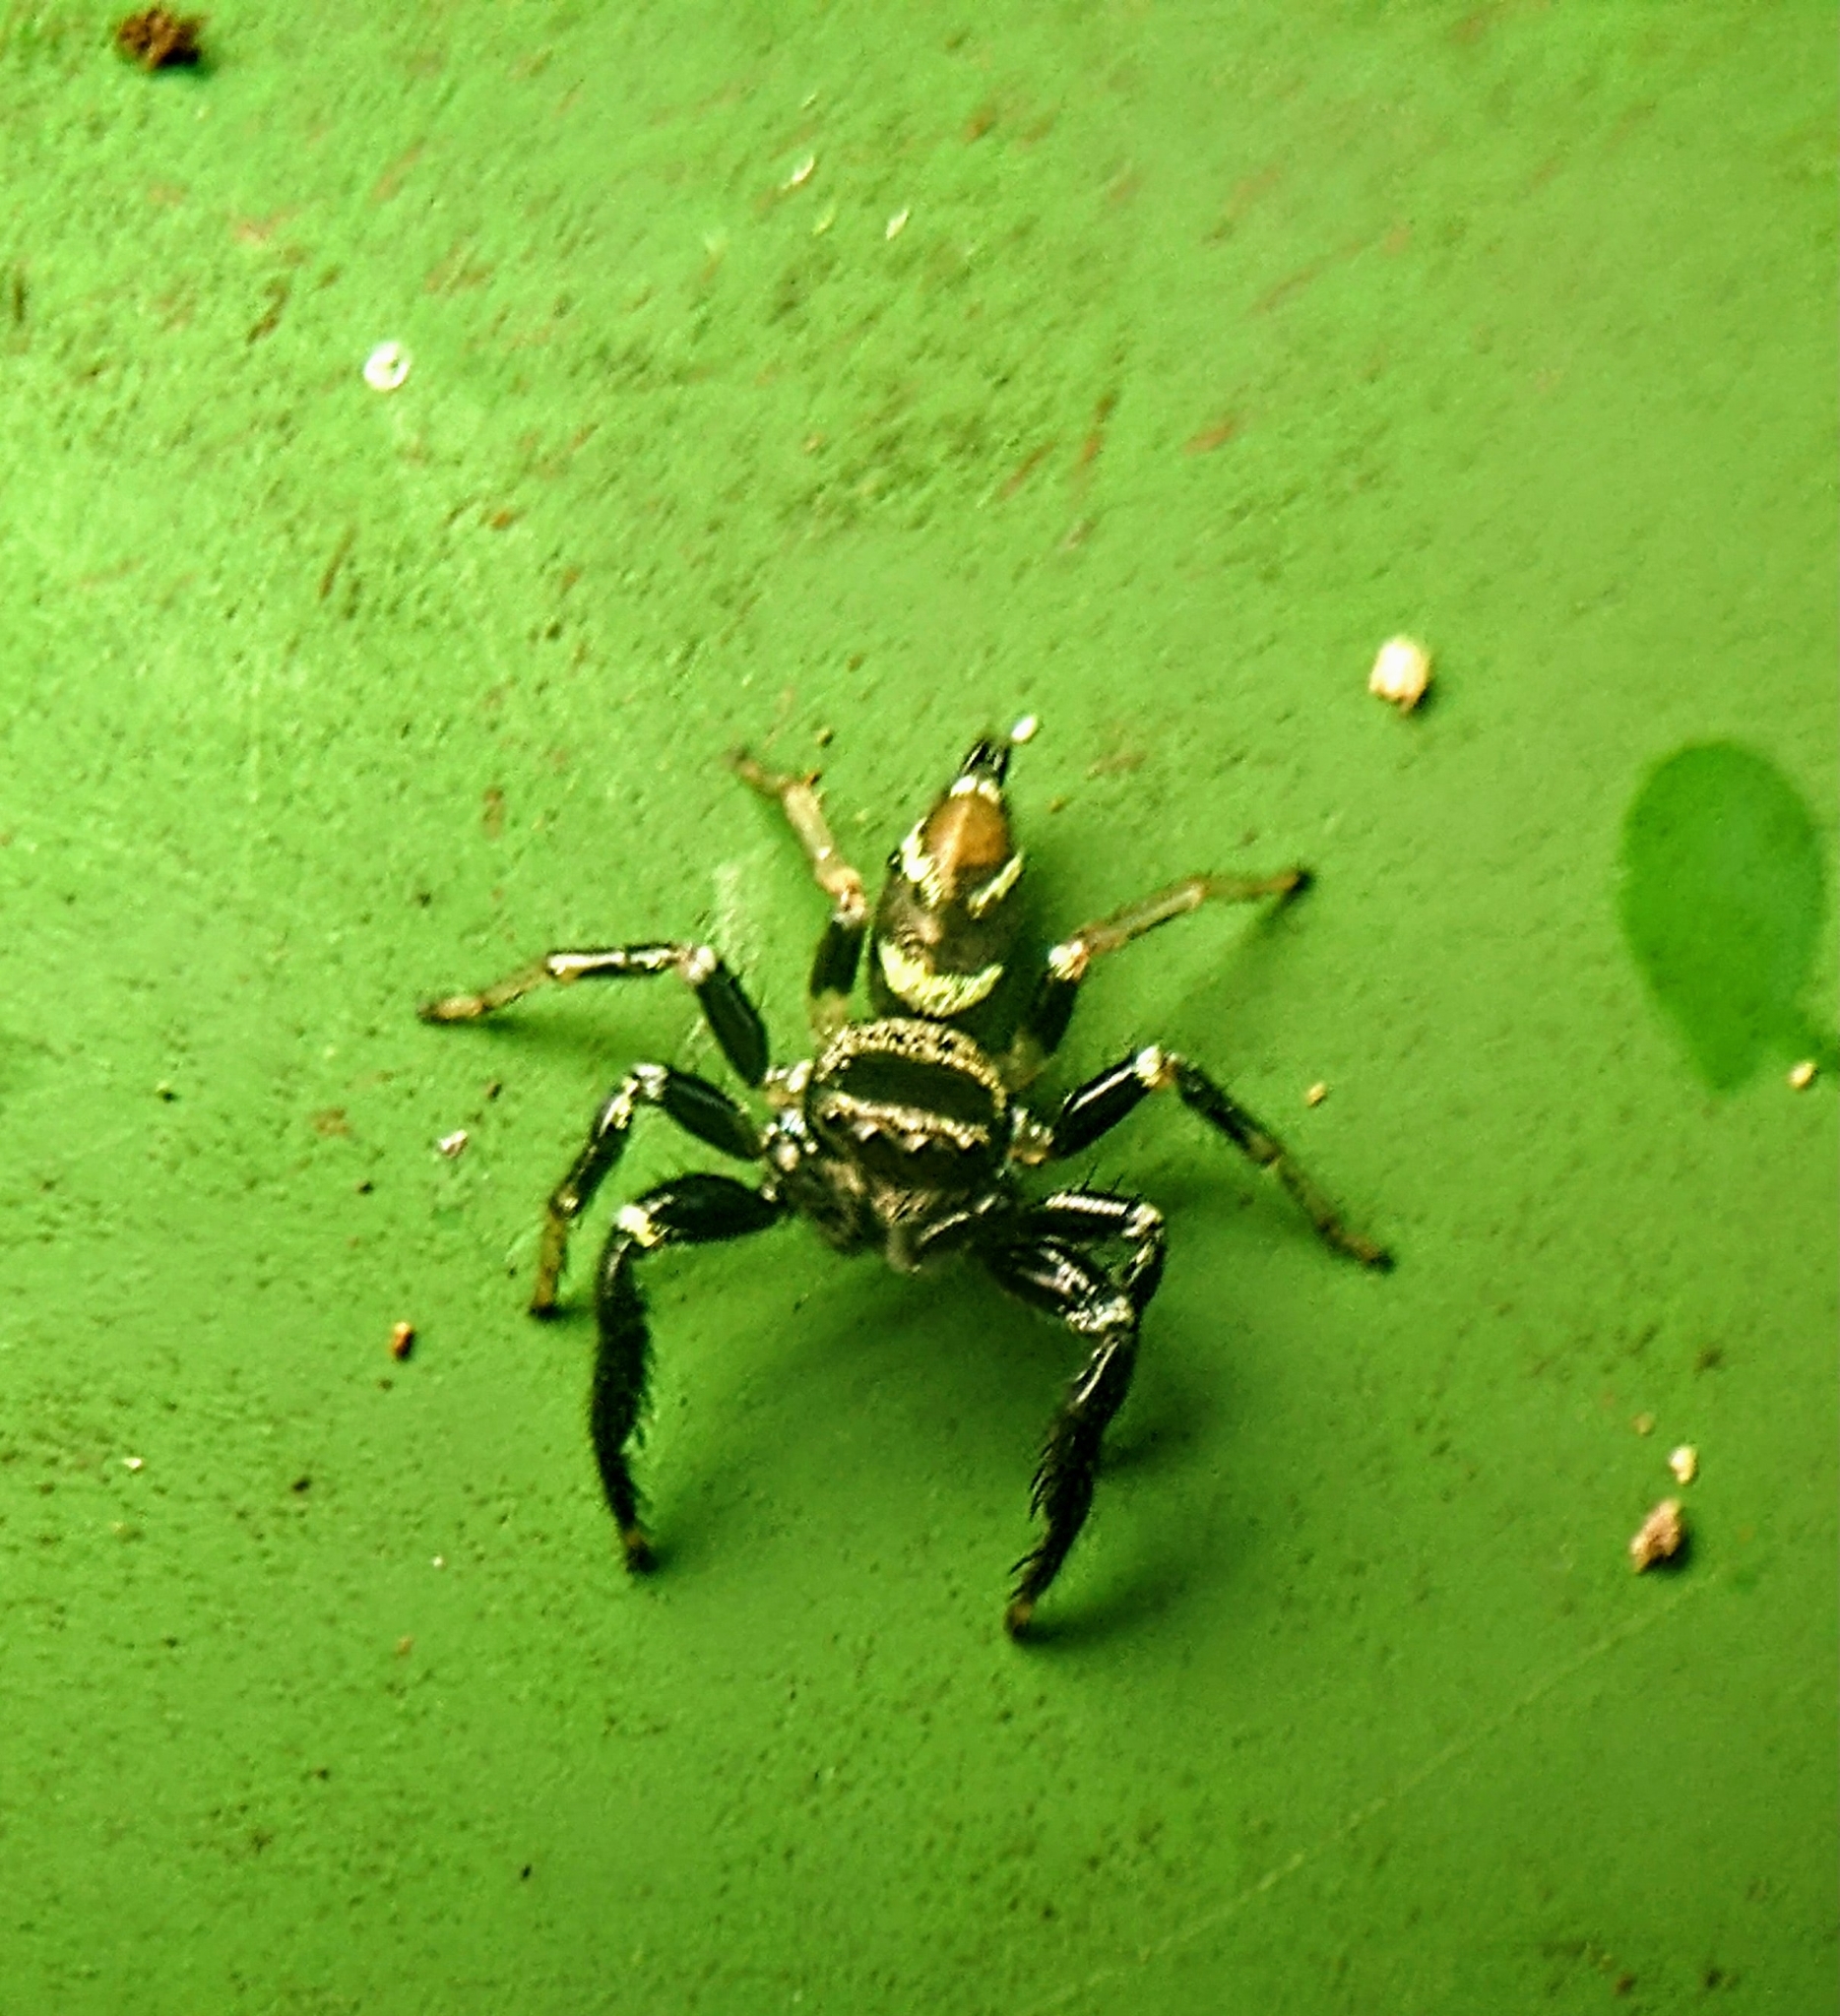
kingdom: Animalia
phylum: Arthropoda
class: Arachnida
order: Araneae
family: Salticidae
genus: Thiania
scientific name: Thiania bhamoensis
